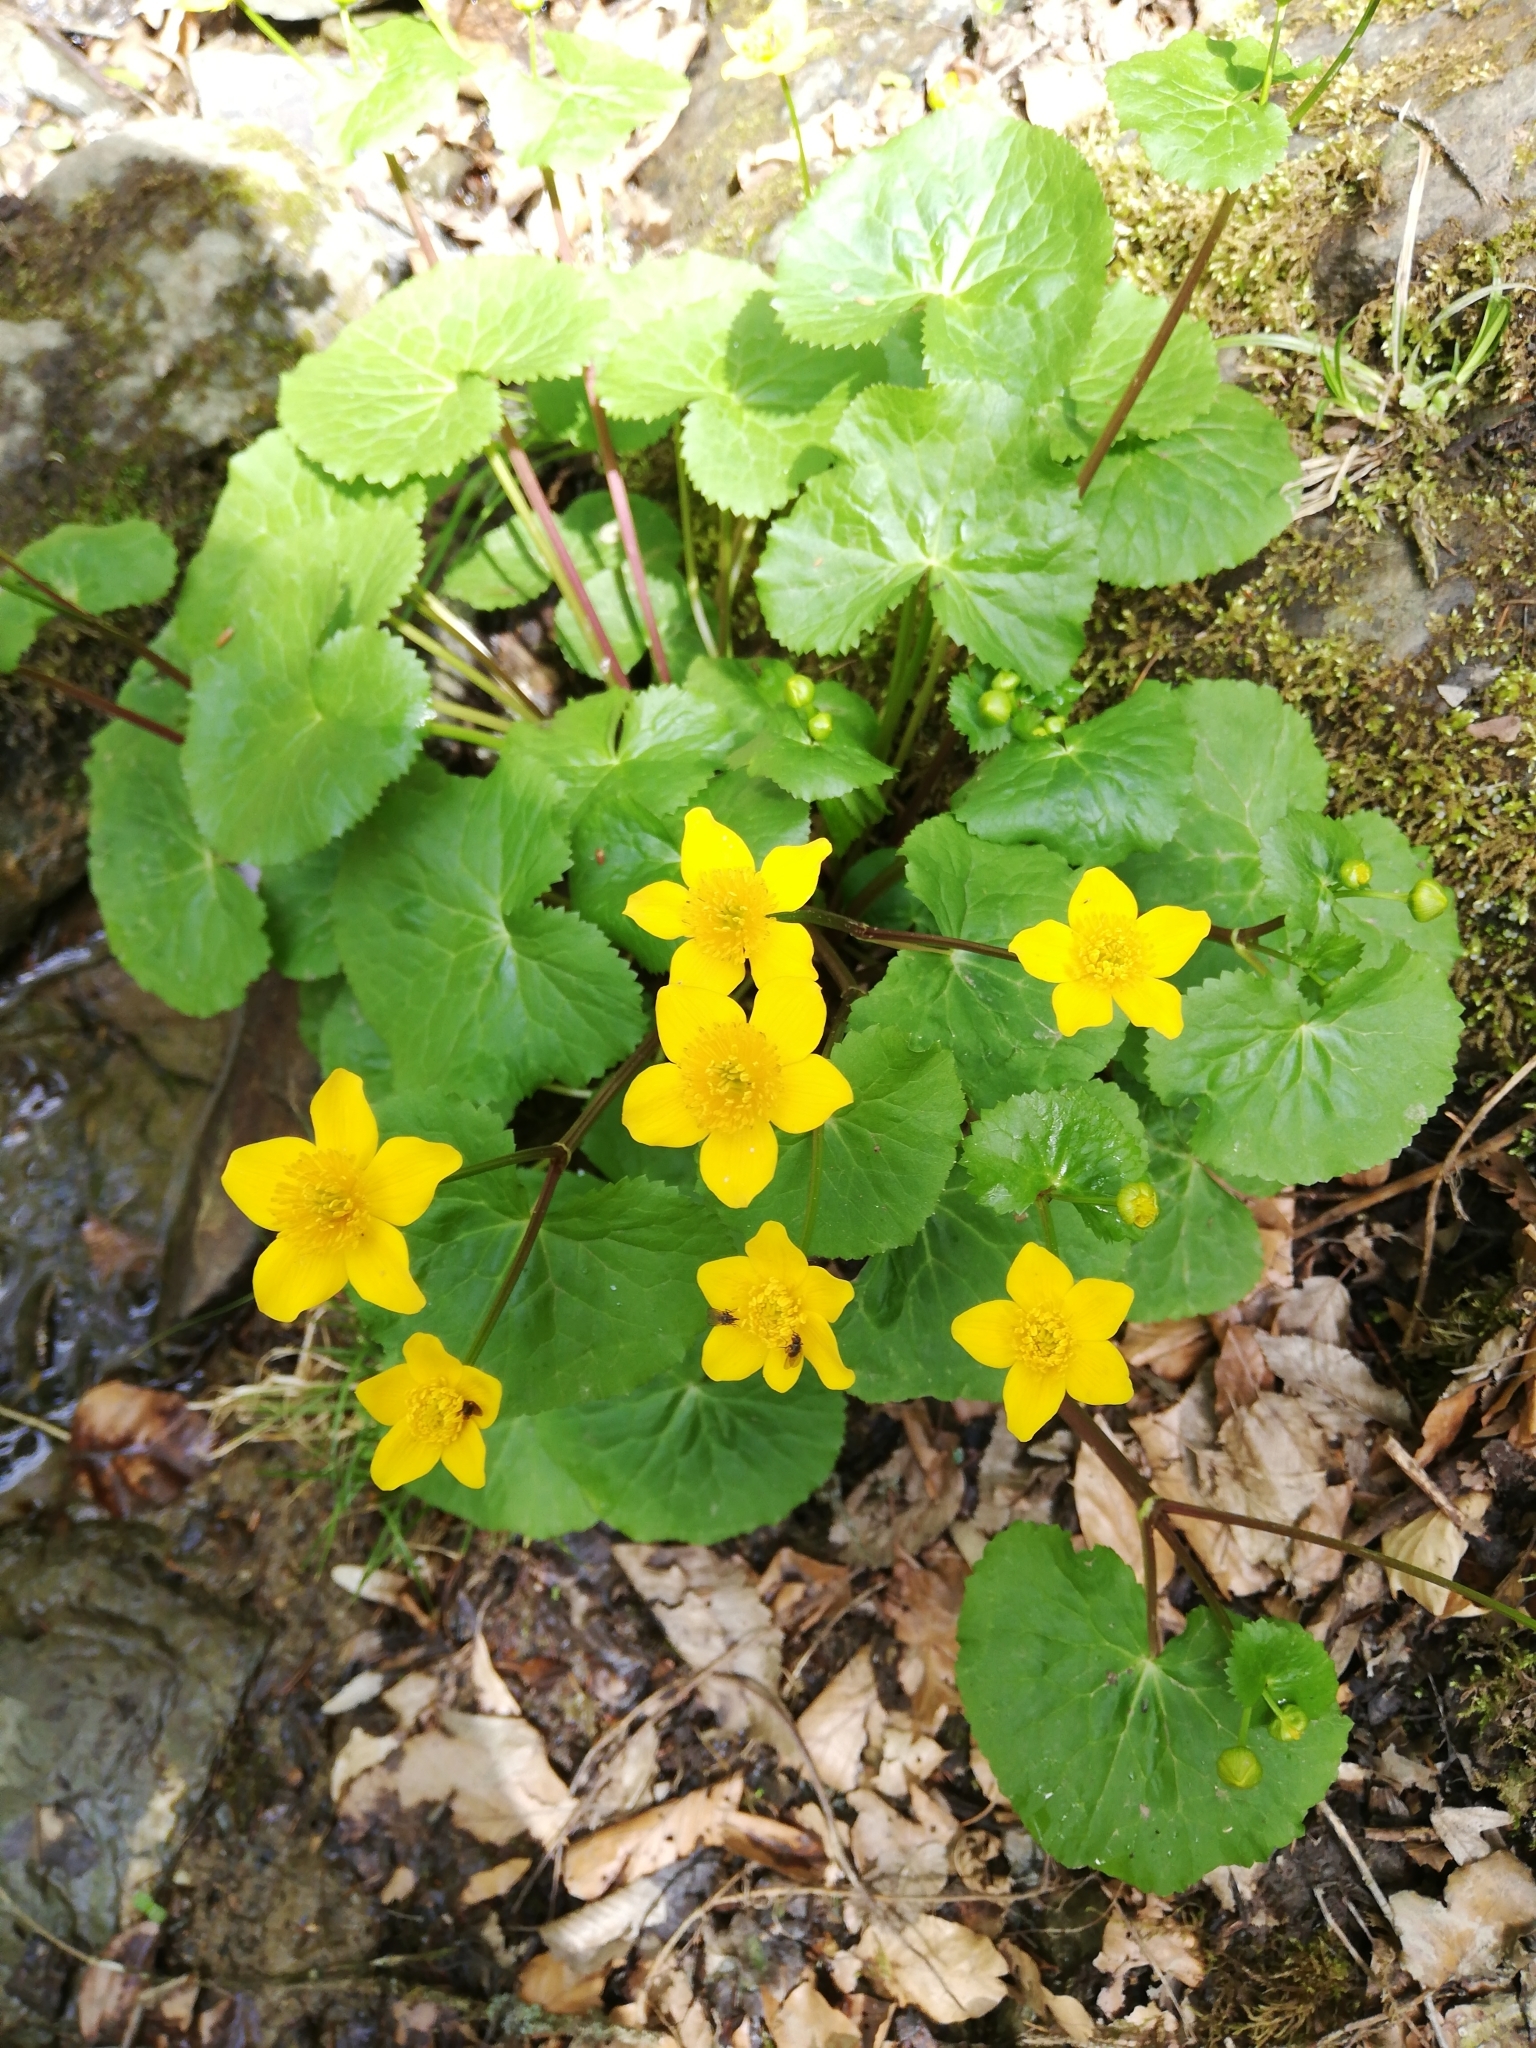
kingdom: Plantae
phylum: Tracheophyta
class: Magnoliopsida
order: Ranunculales
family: Ranunculaceae
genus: Caltha
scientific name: Caltha palustris
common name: Marsh marigold
